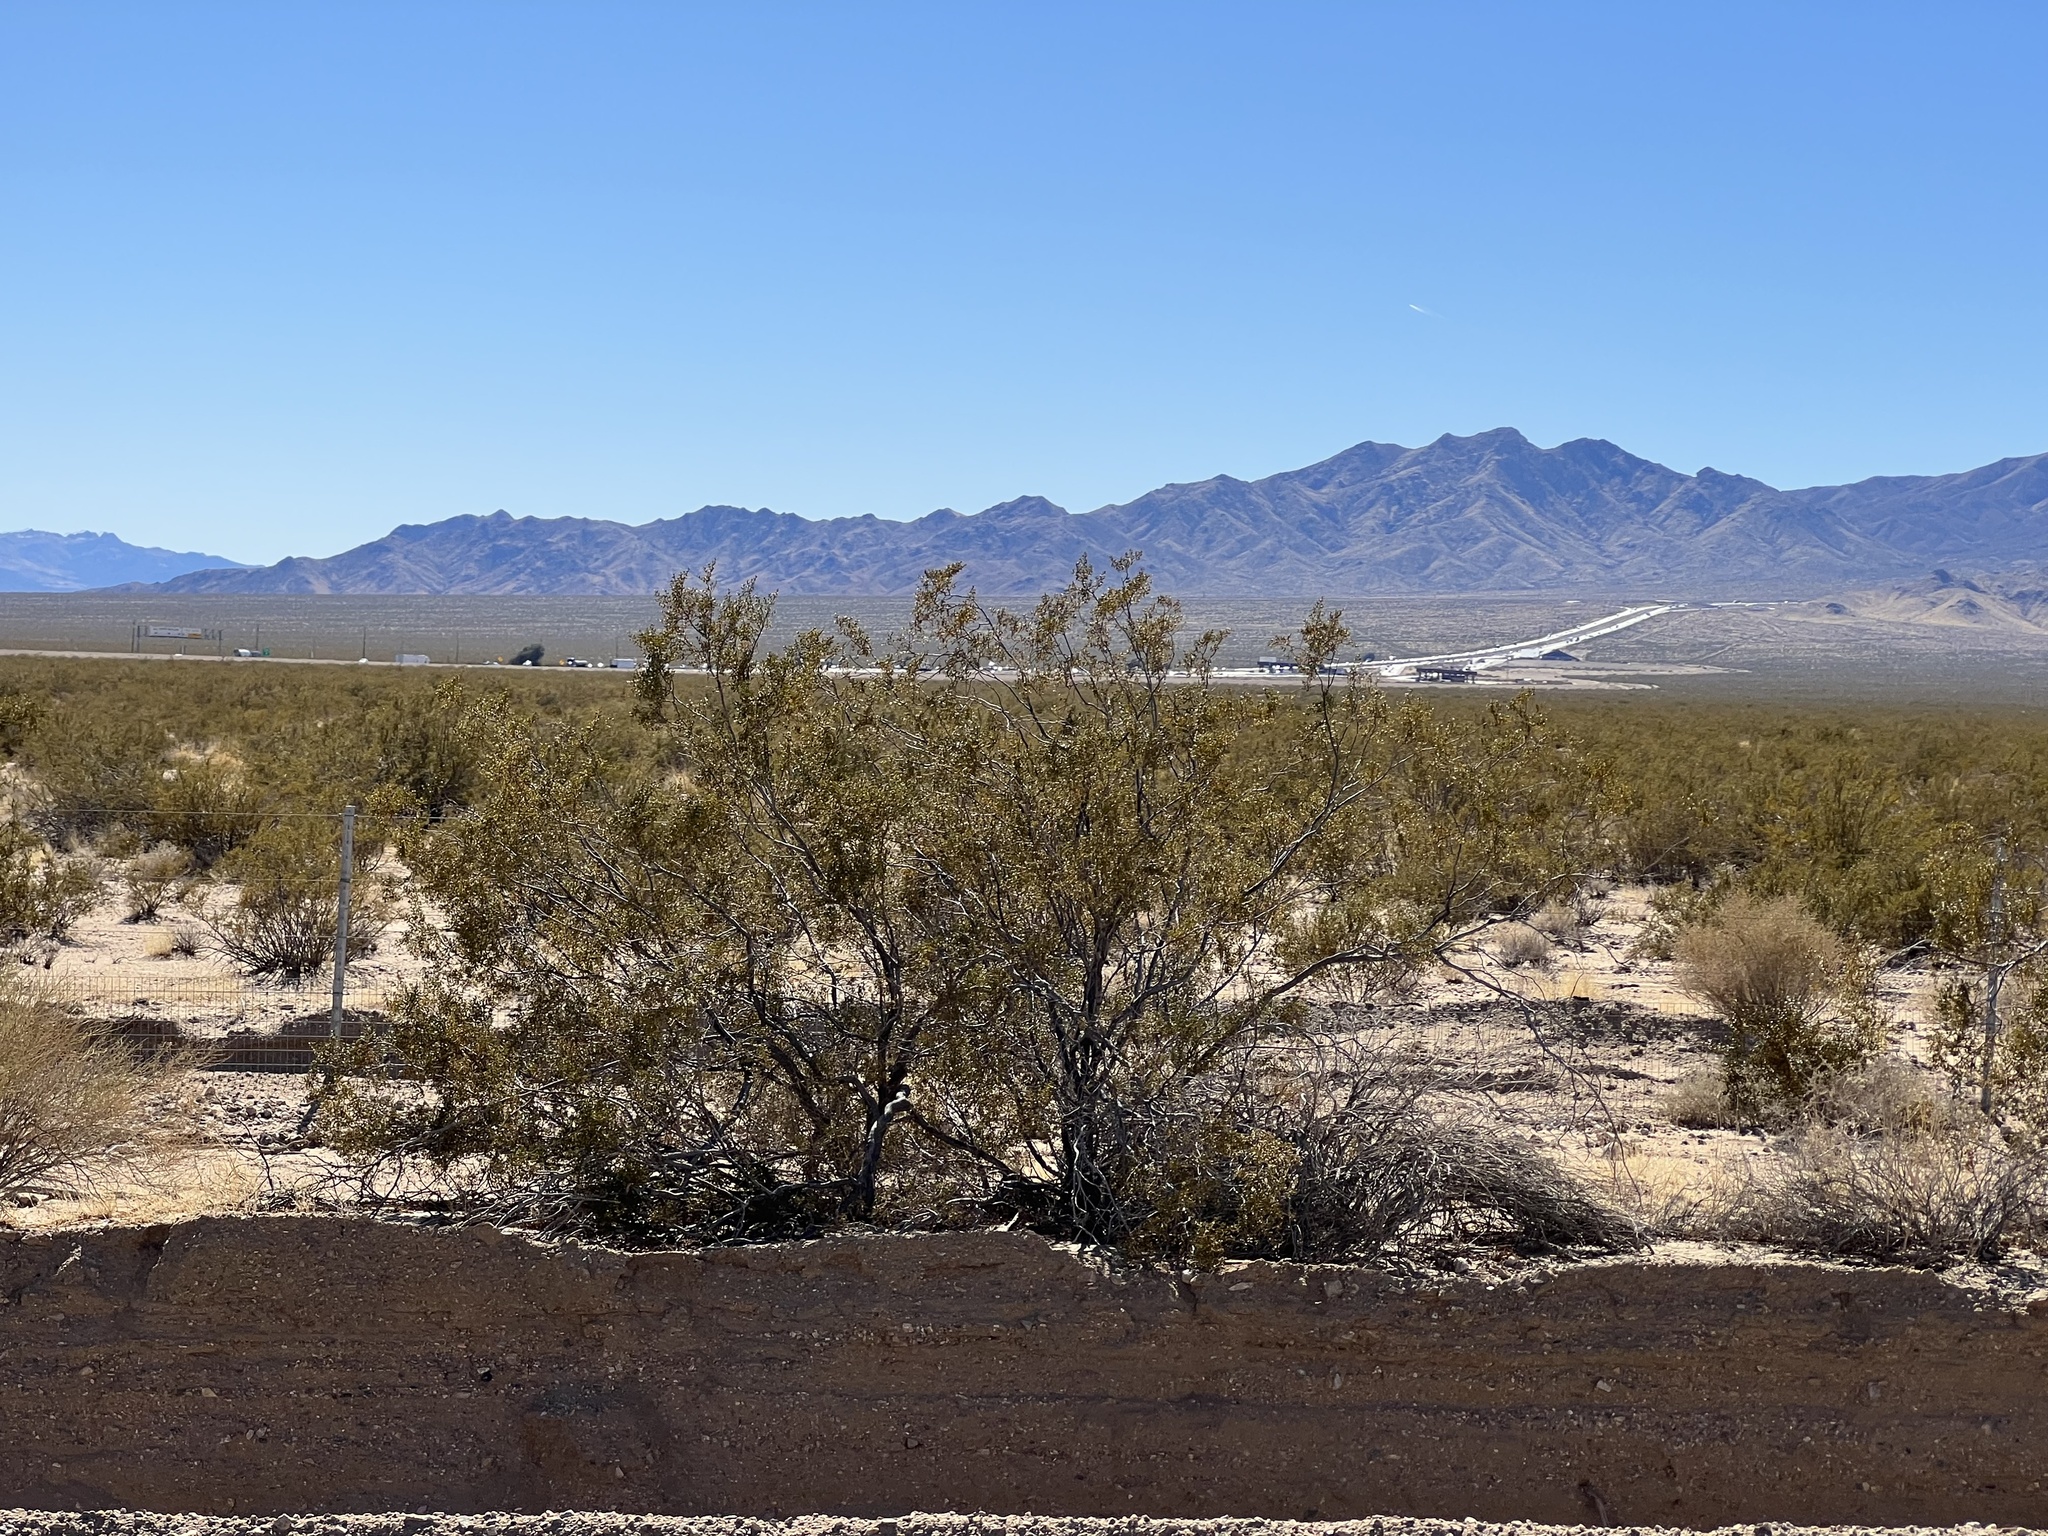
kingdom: Plantae
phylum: Tracheophyta
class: Magnoliopsida
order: Zygophyllales
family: Zygophyllaceae
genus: Larrea
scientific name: Larrea tridentata
